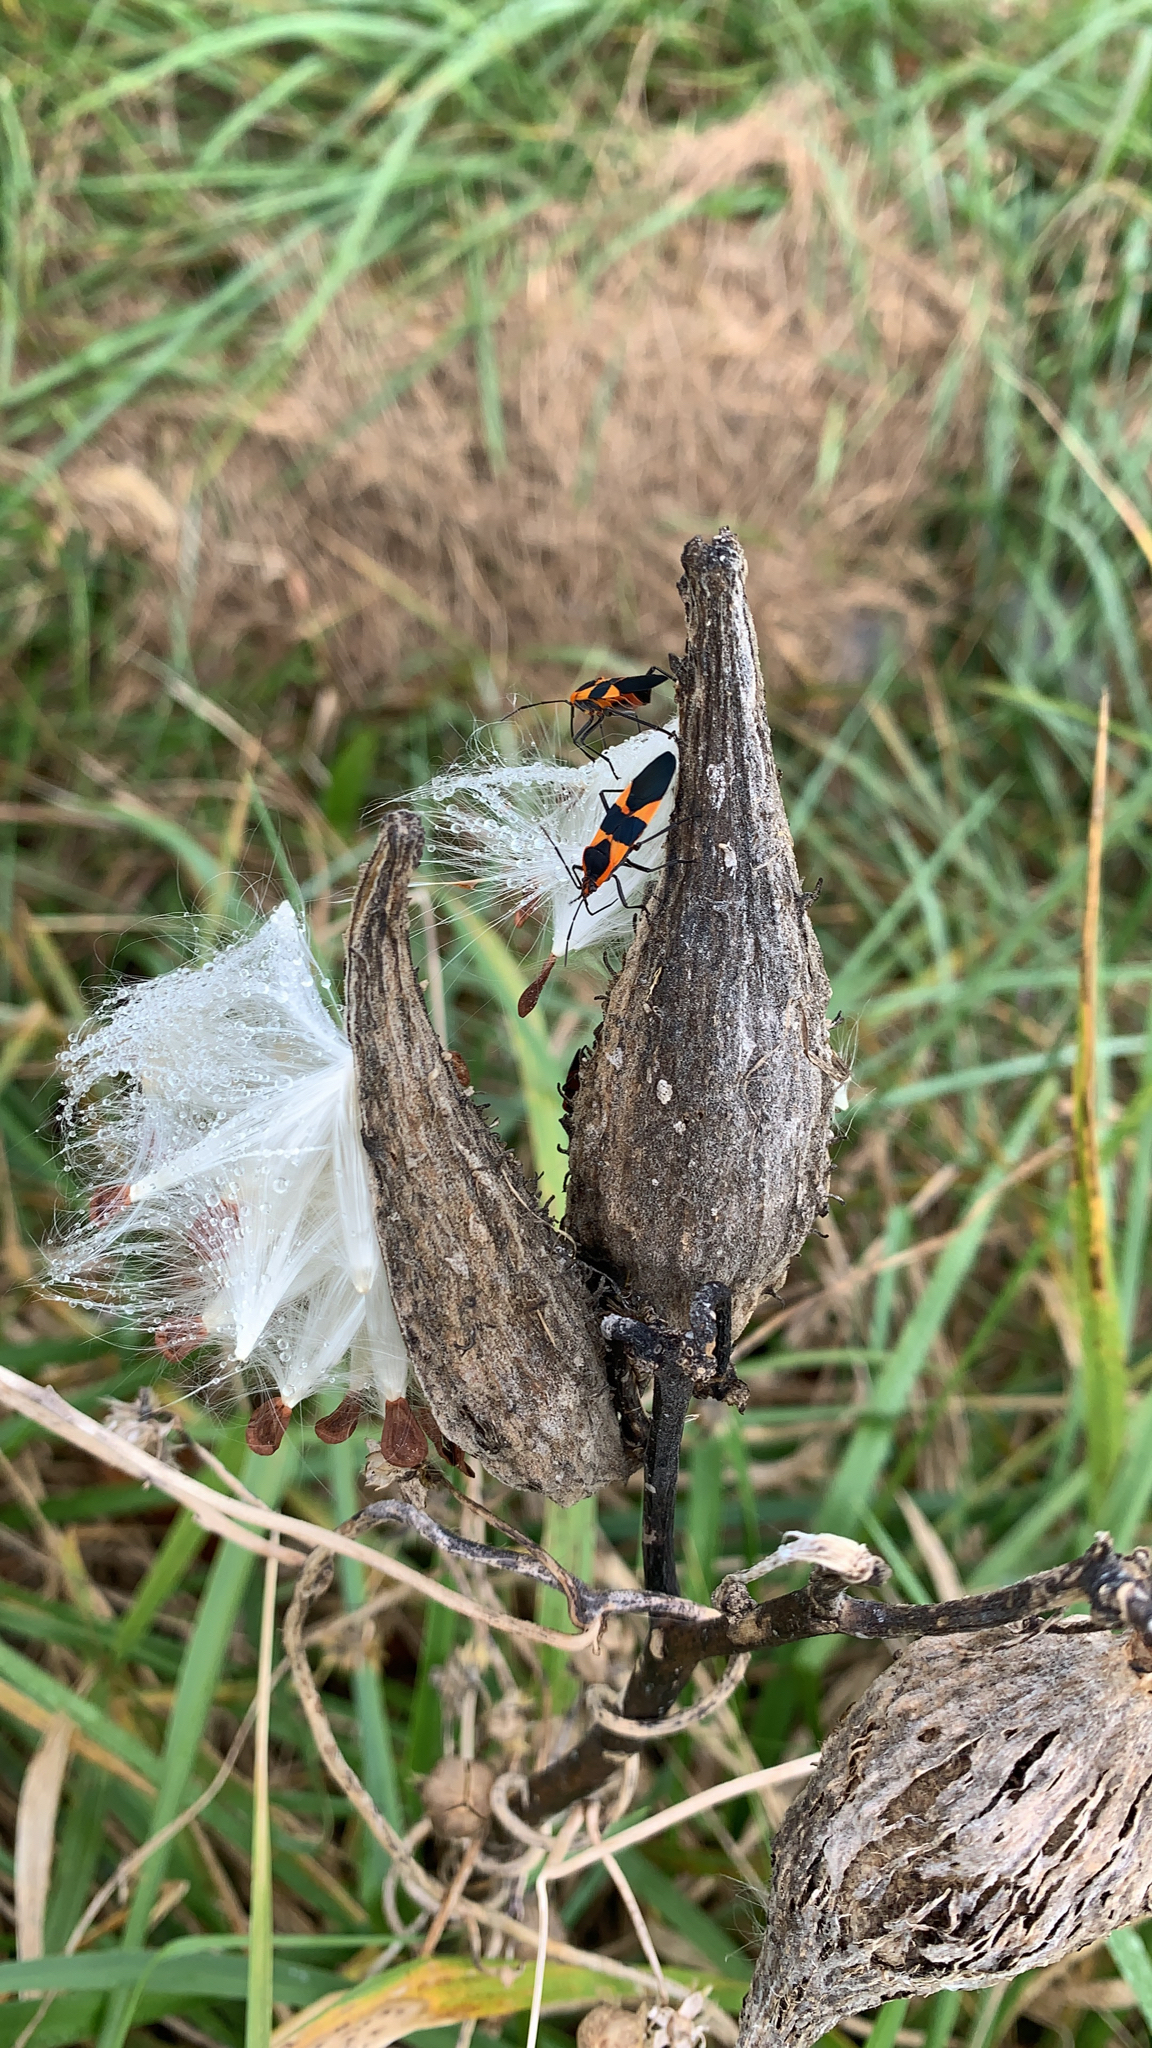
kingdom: Animalia
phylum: Arthropoda
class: Insecta
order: Hemiptera
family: Lygaeidae
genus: Oncopeltus
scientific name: Oncopeltus fasciatus
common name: Large milkweed bug
